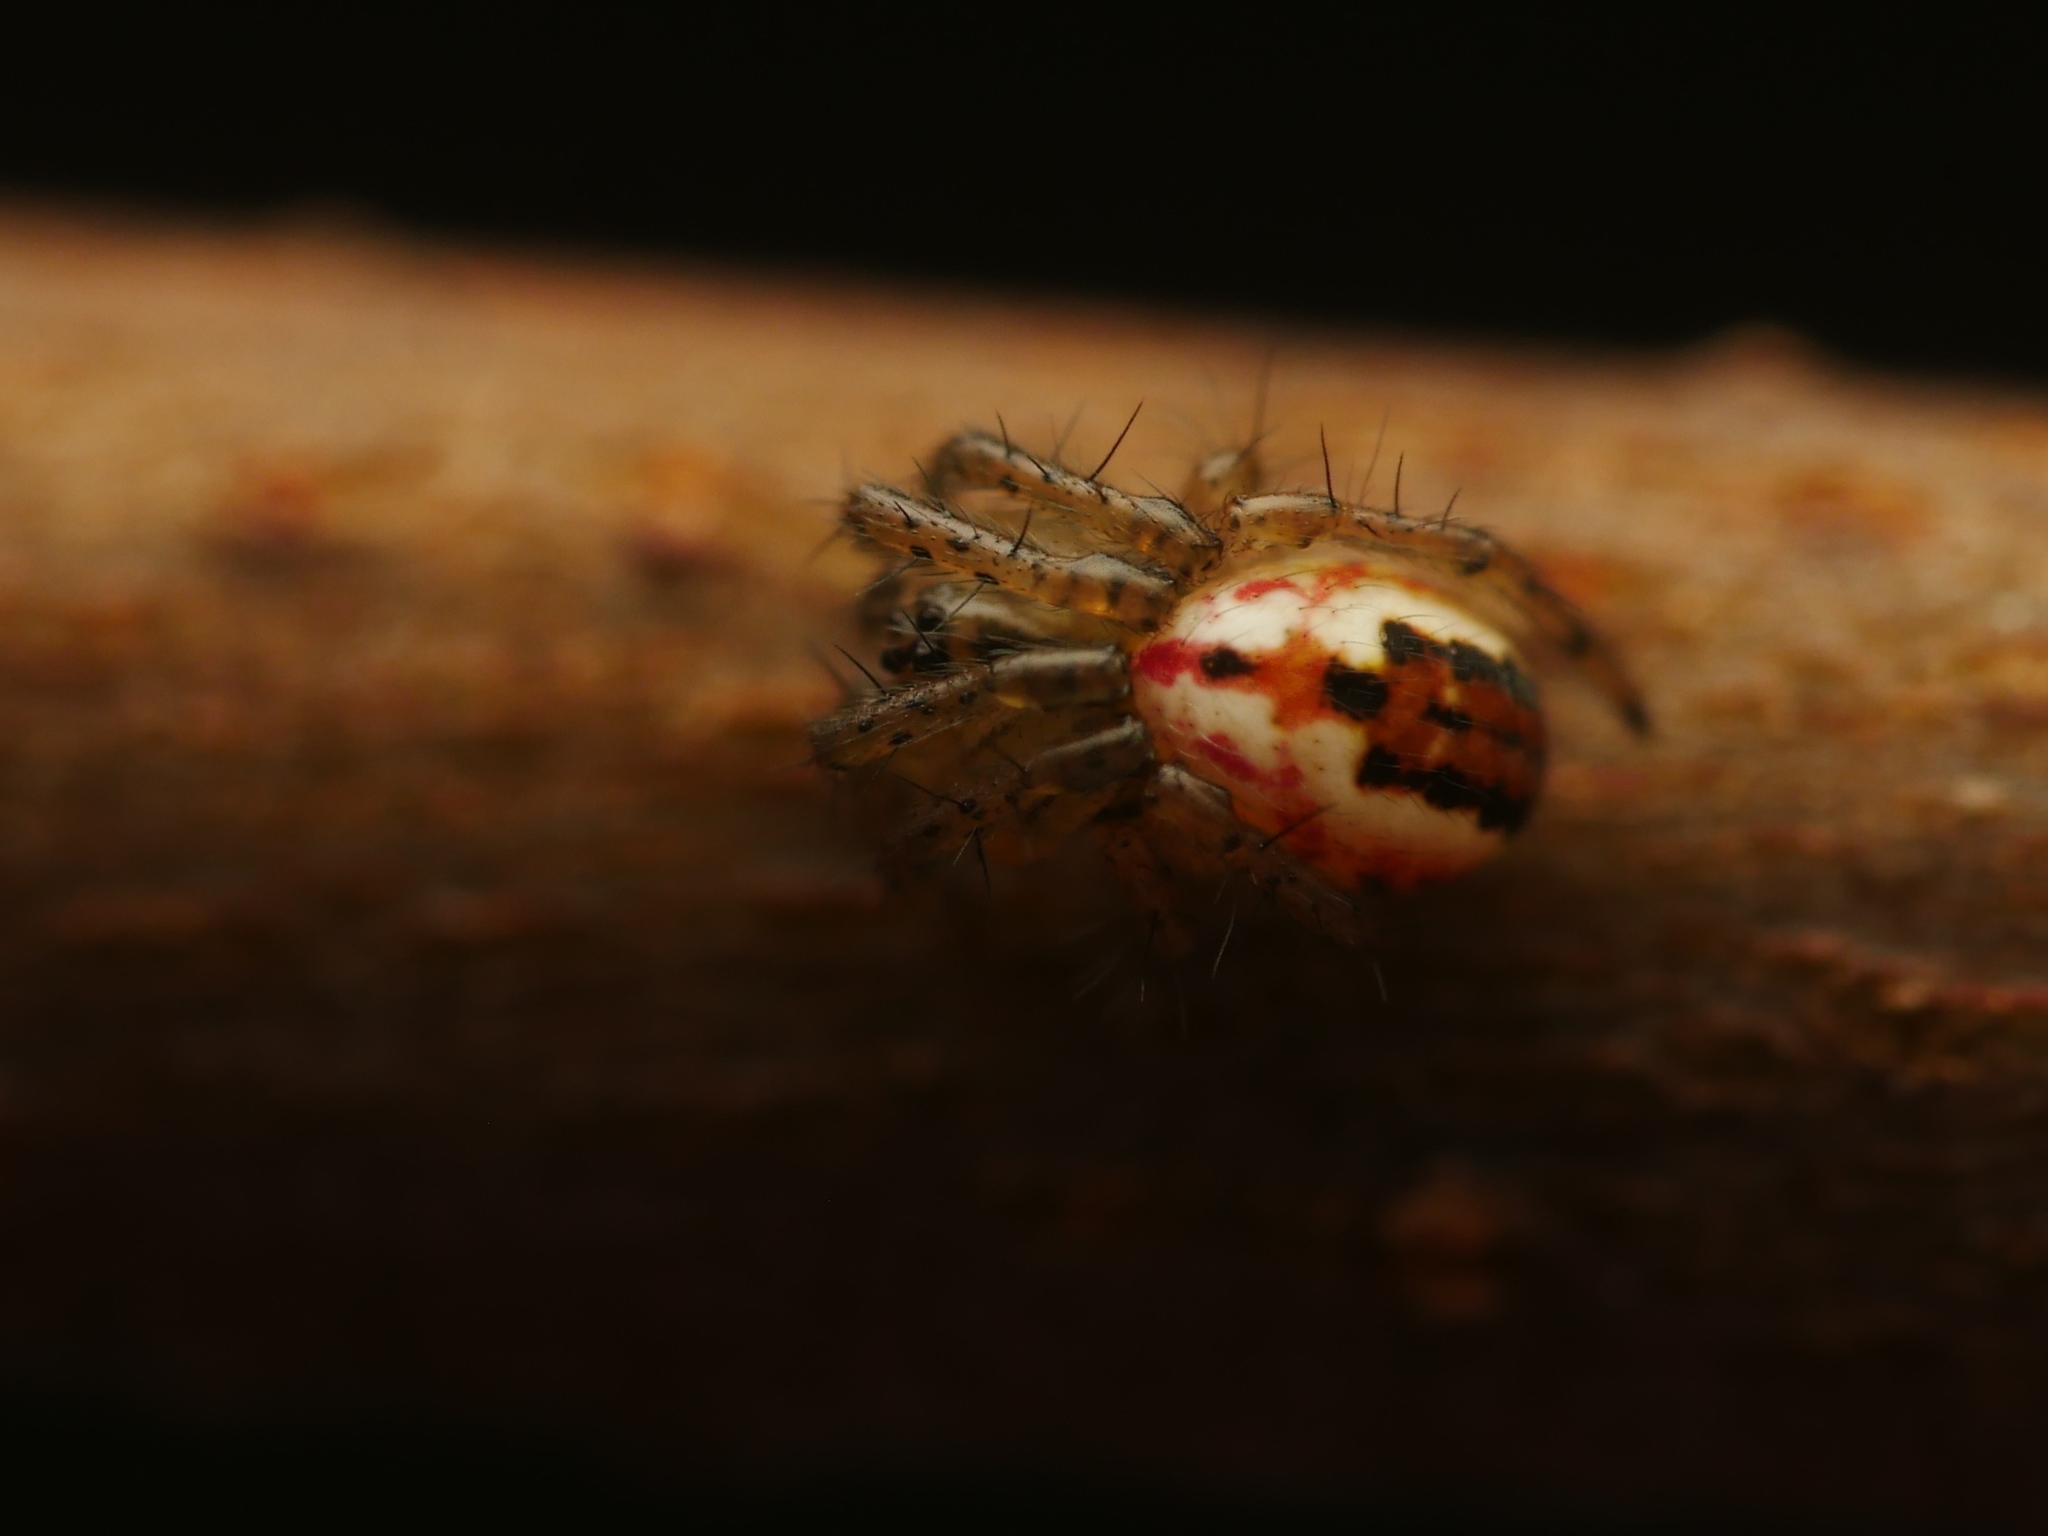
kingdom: Animalia
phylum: Arthropoda
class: Arachnida
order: Araneae
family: Araneidae
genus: Mangora
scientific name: Mangora acalypha
